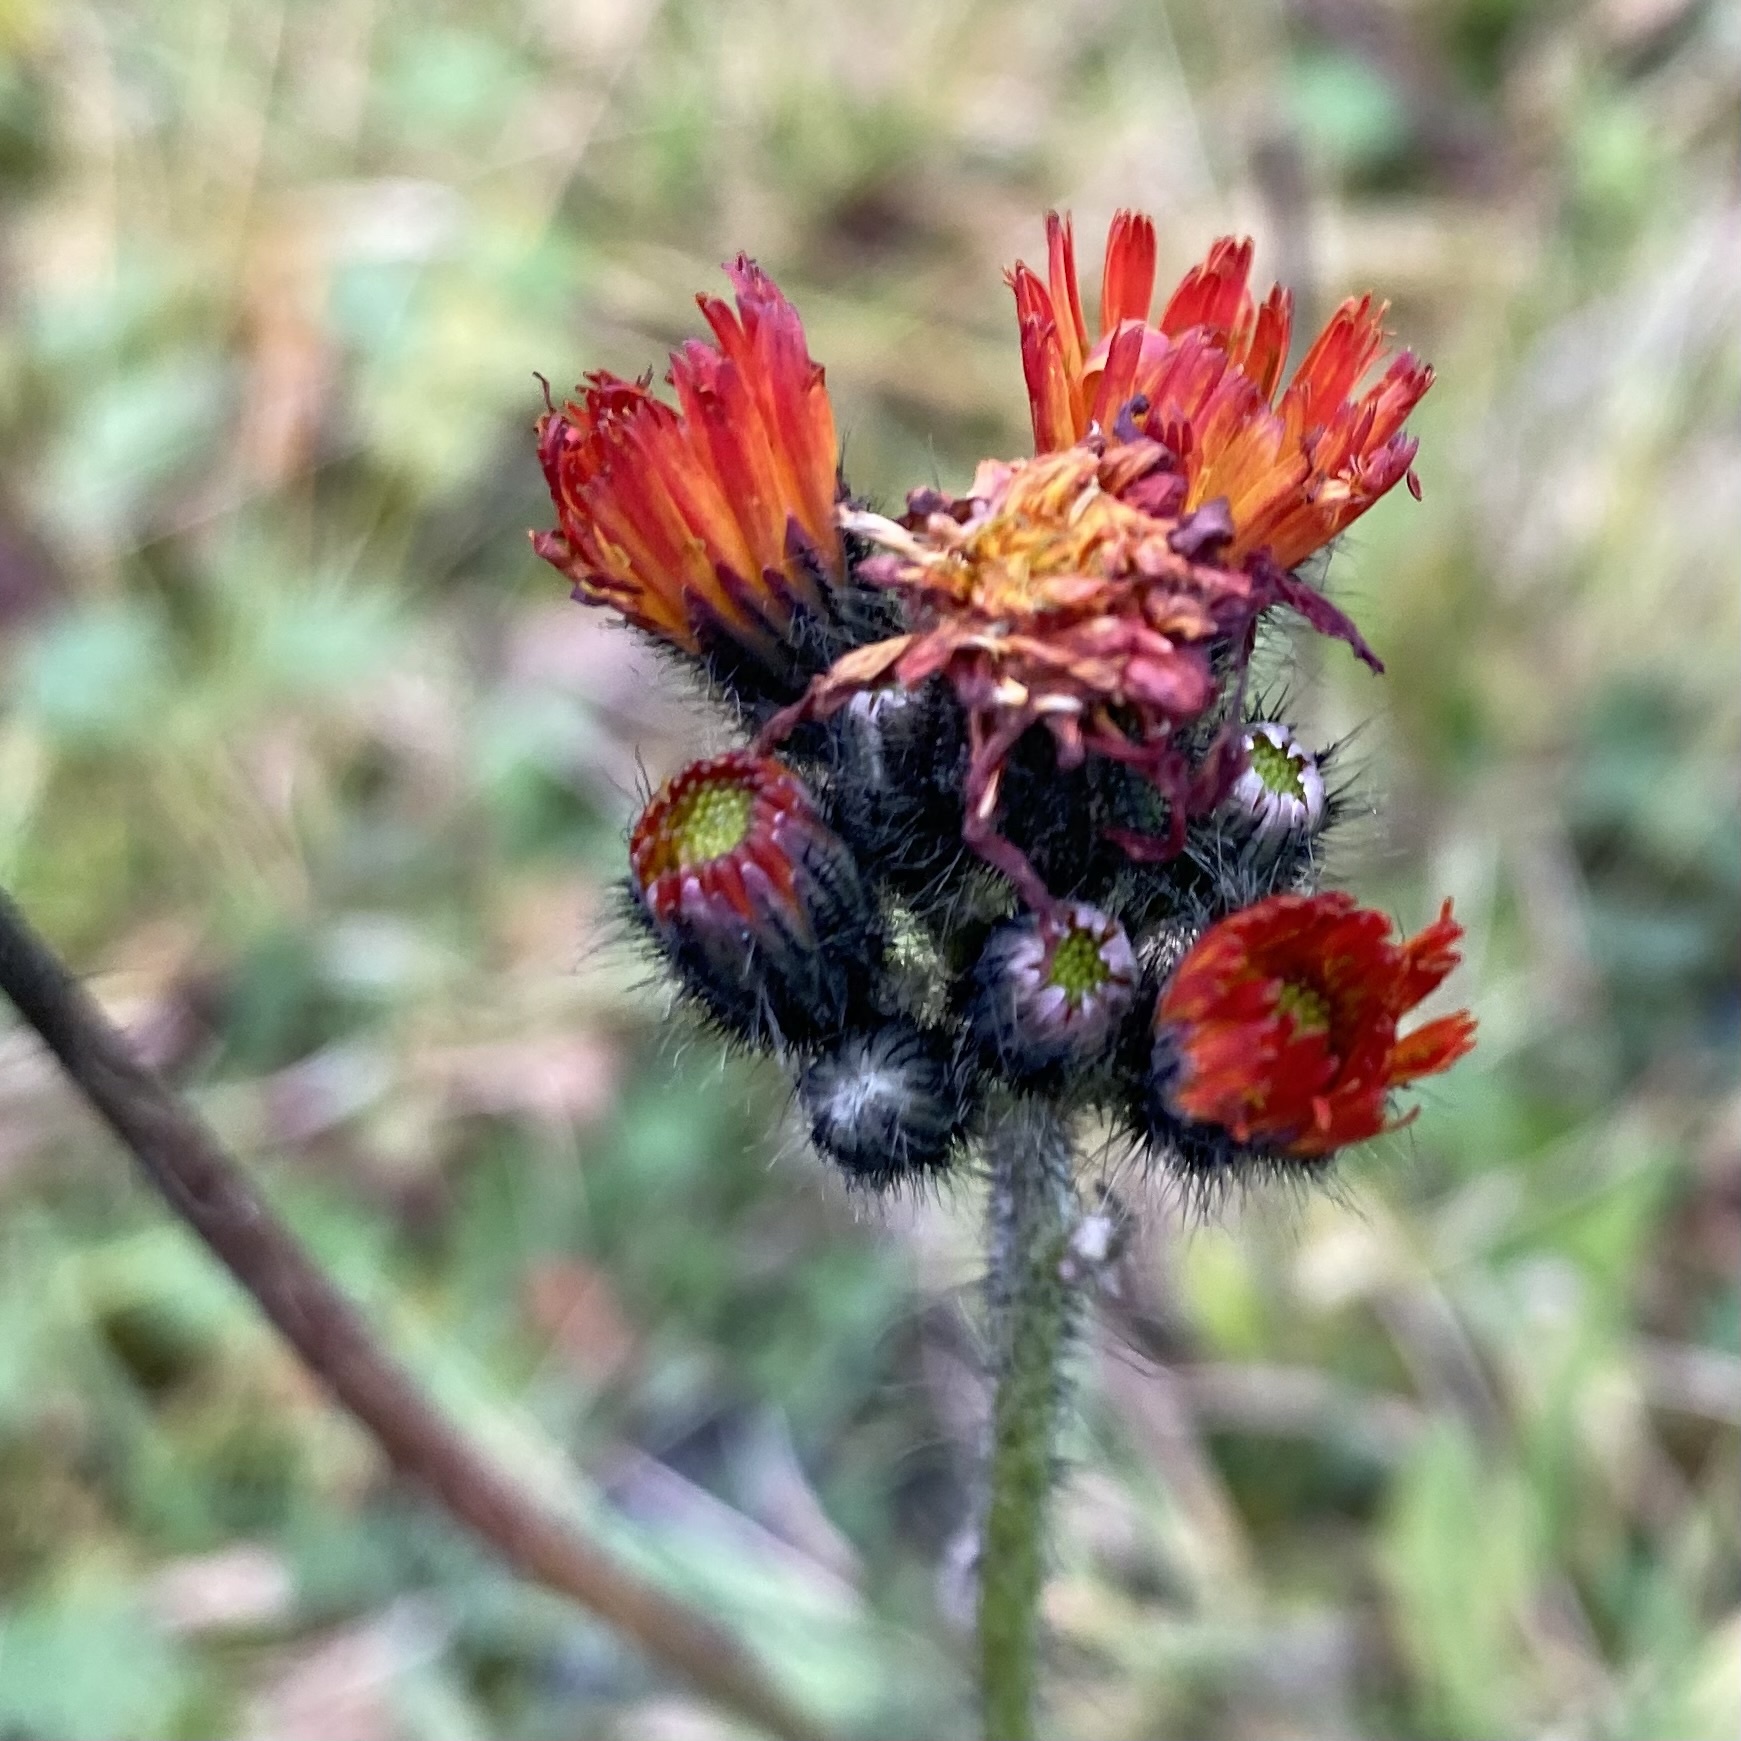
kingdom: Plantae
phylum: Tracheophyta
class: Magnoliopsida
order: Asterales
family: Asteraceae
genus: Pilosella
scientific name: Pilosella aurantiaca
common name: Fox-and-cubs
